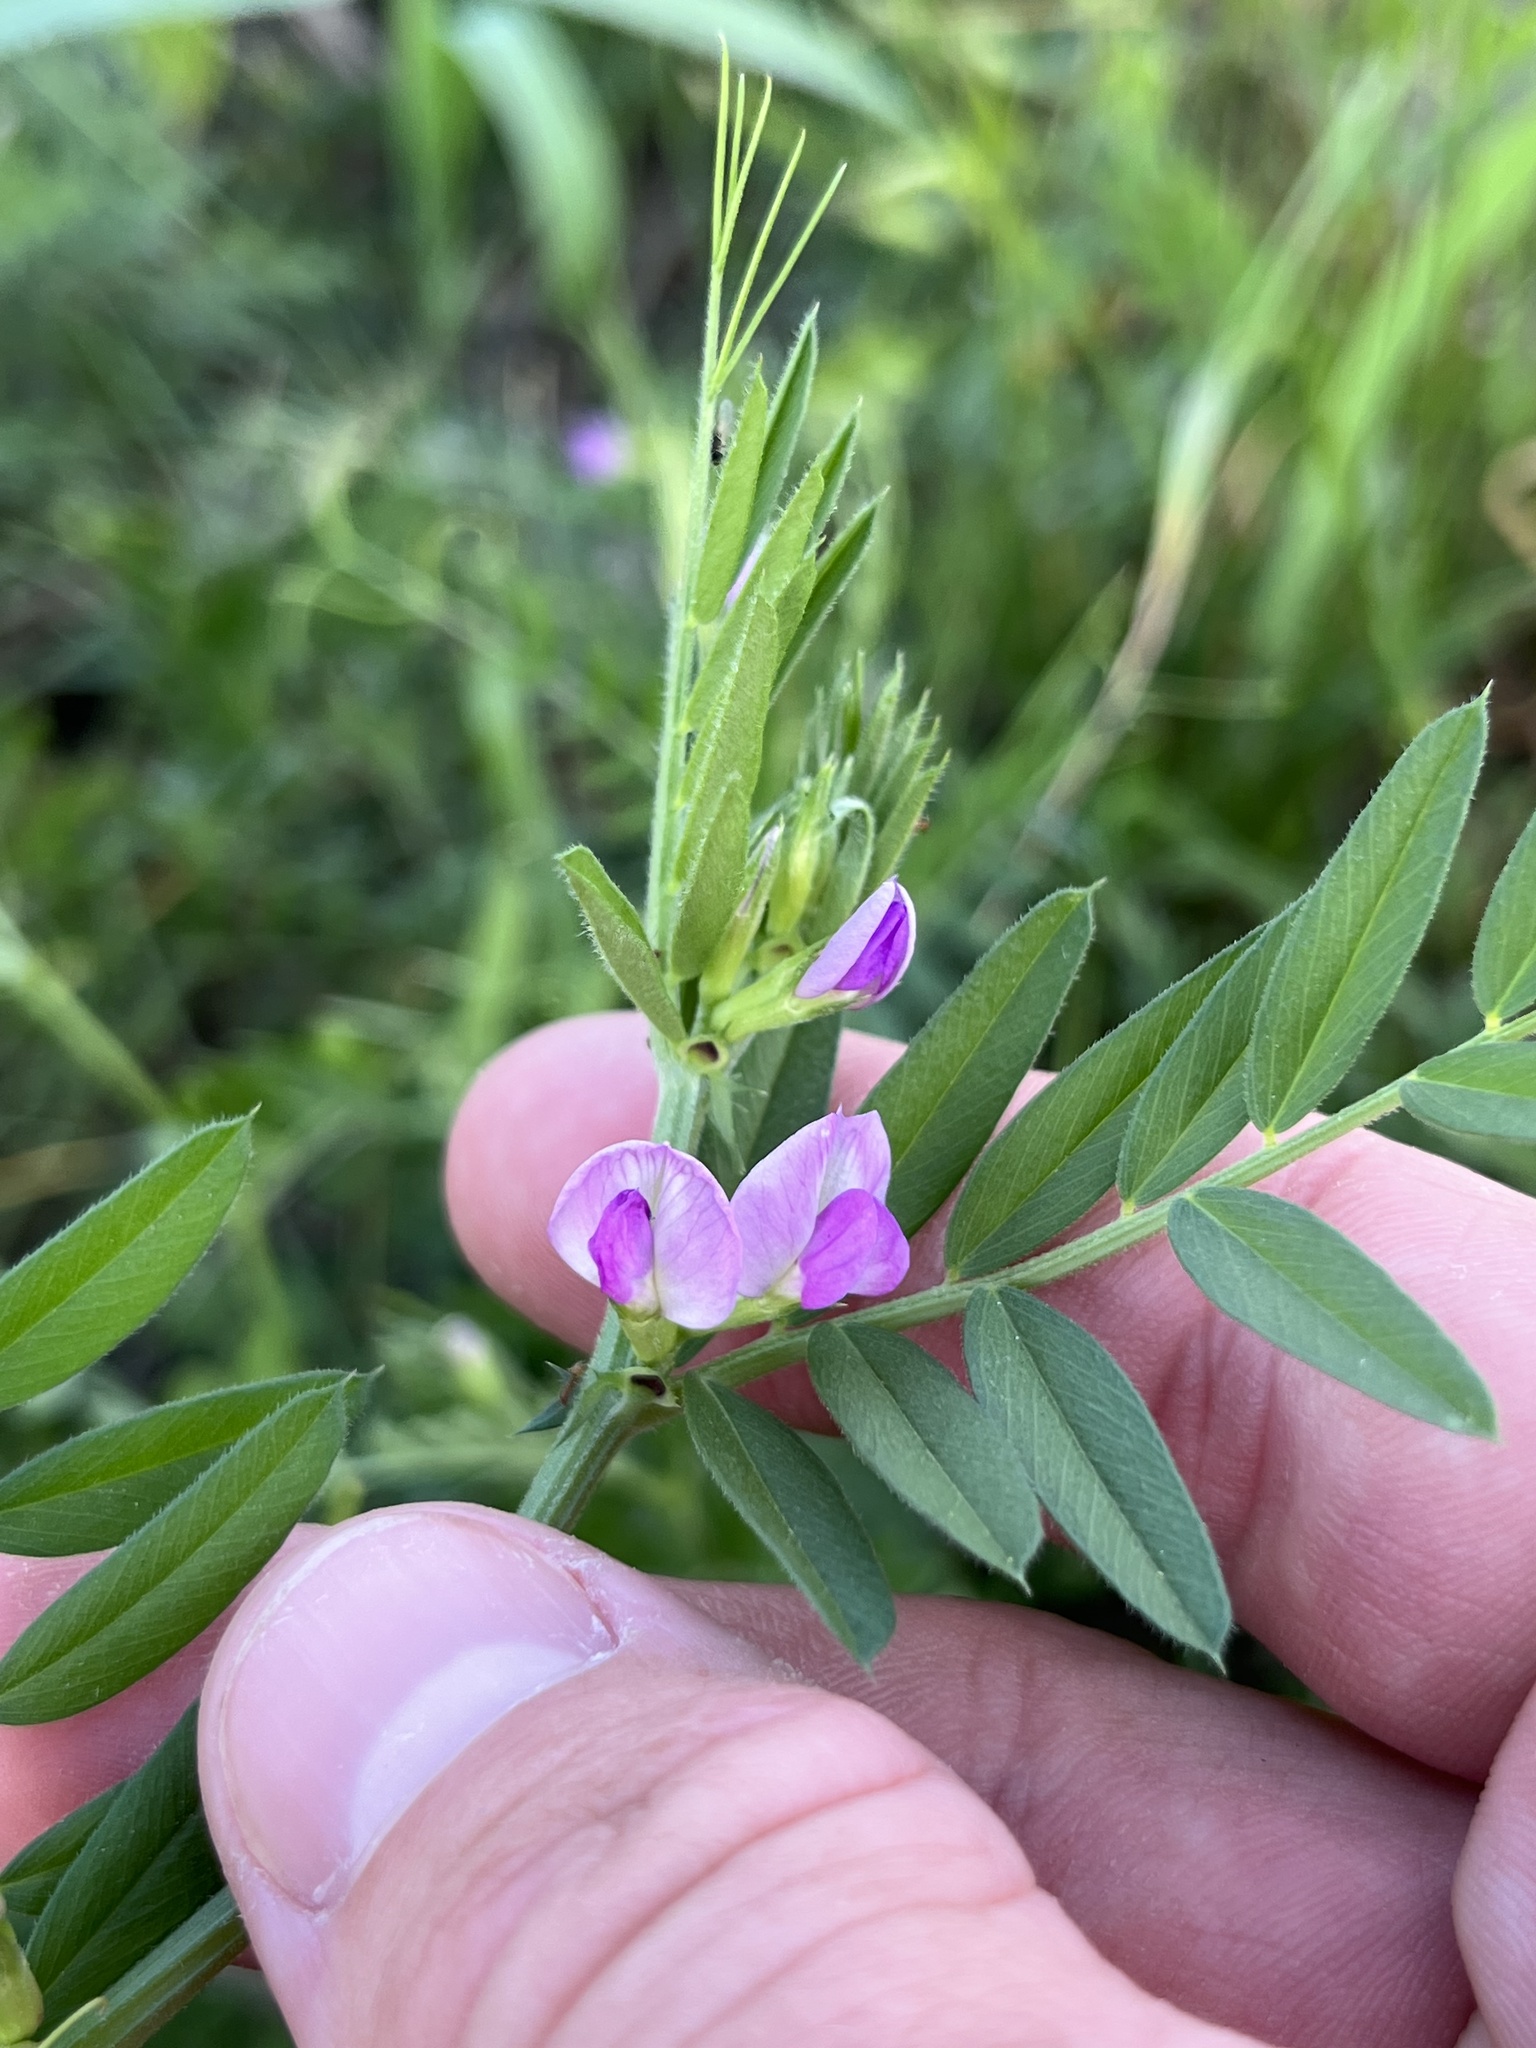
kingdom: Plantae
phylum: Tracheophyta
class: Magnoliopsida
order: Fabales
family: Fabaceae
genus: Vicia
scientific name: Vicia sativa
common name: Garden vetch
